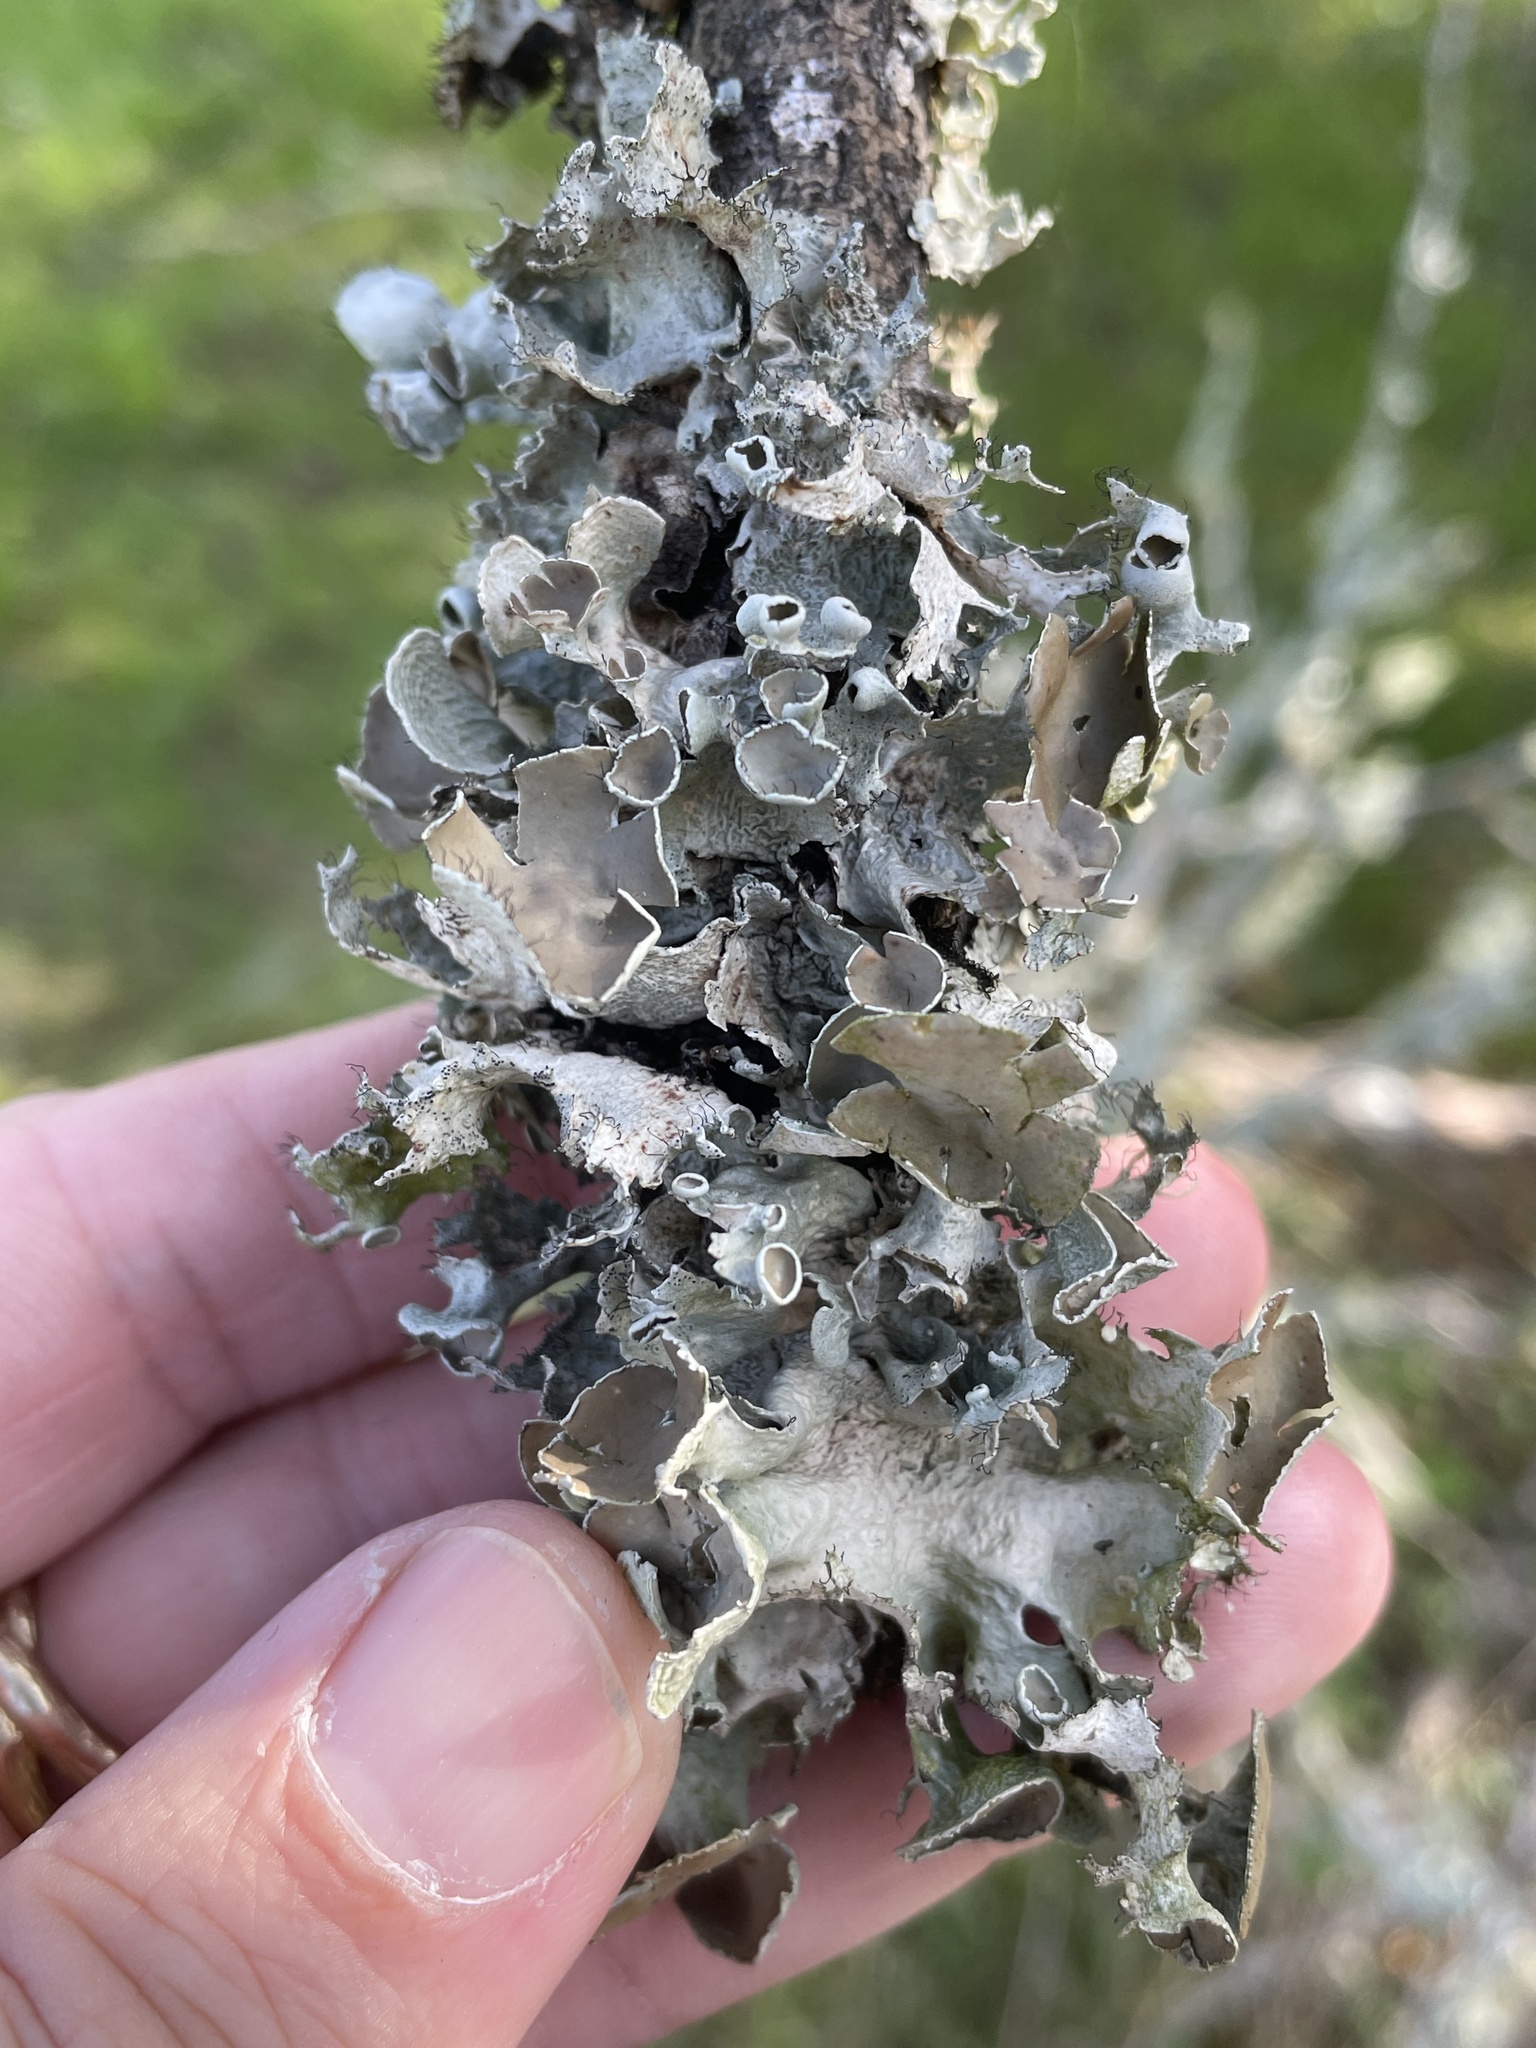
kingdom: Fungi
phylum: Ascomycota
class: Lecanoromycetes
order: Lecanorales
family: Parmeliaceae
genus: Parmotrema
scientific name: Parmotrema perforatum
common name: Perforated ruffle lichen
